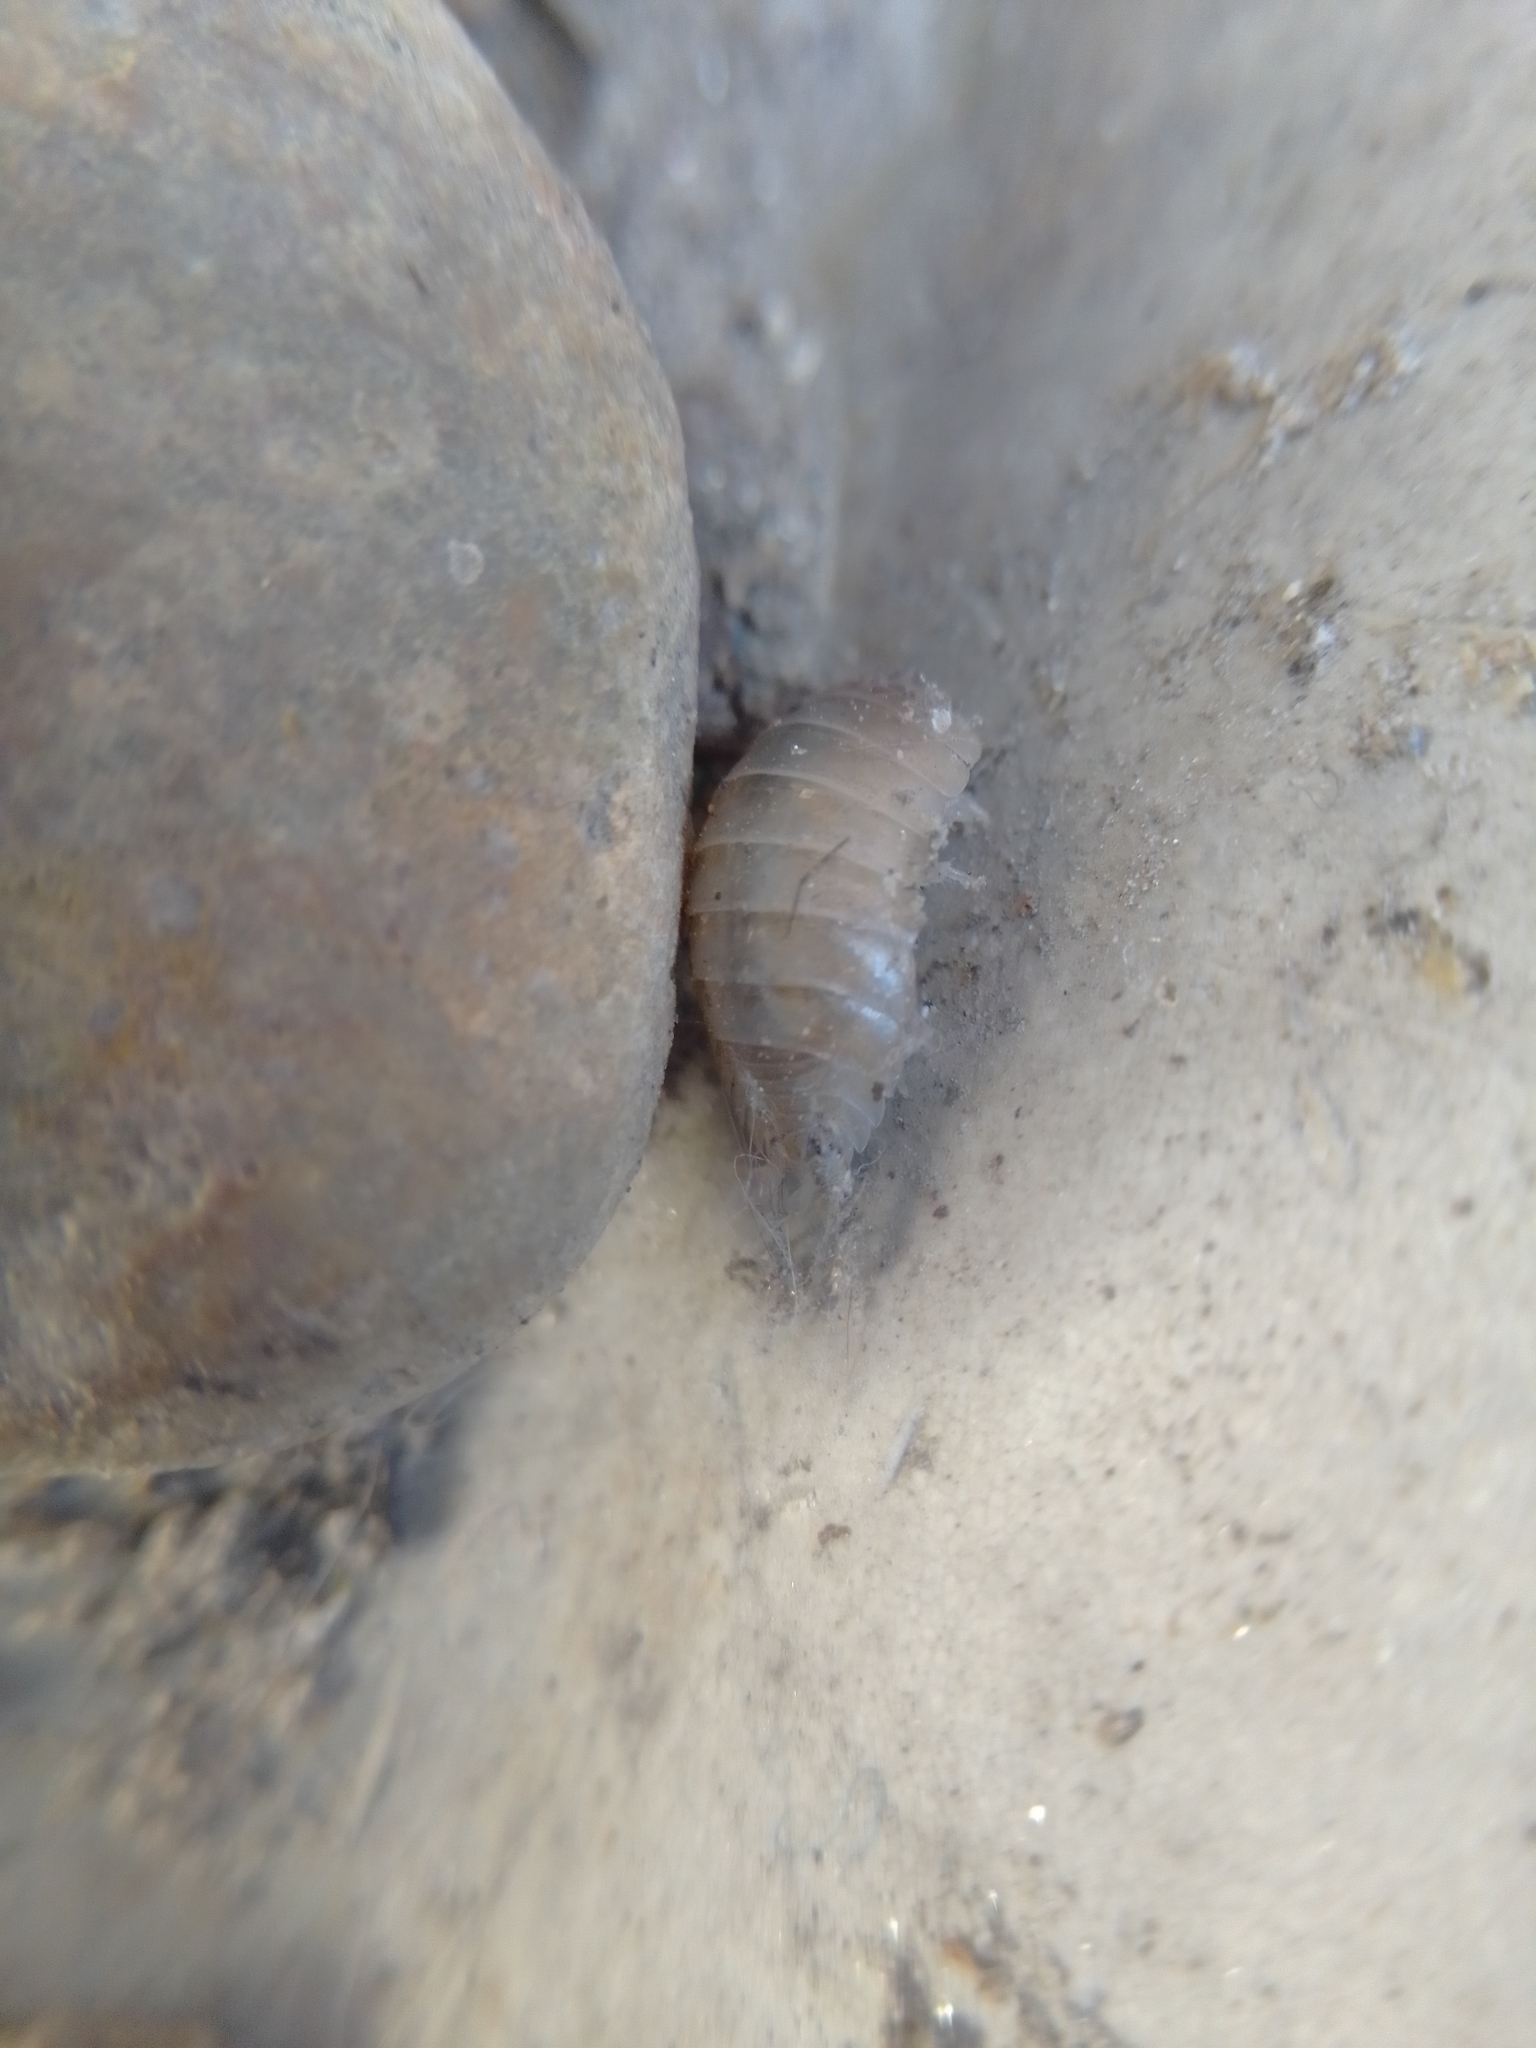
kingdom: Animalia
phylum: Arthropoda
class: Malacostraca
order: Isopoda
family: Porcellionidae
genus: Porcellio
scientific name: Porcellio laevis
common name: Swift woodlouse
